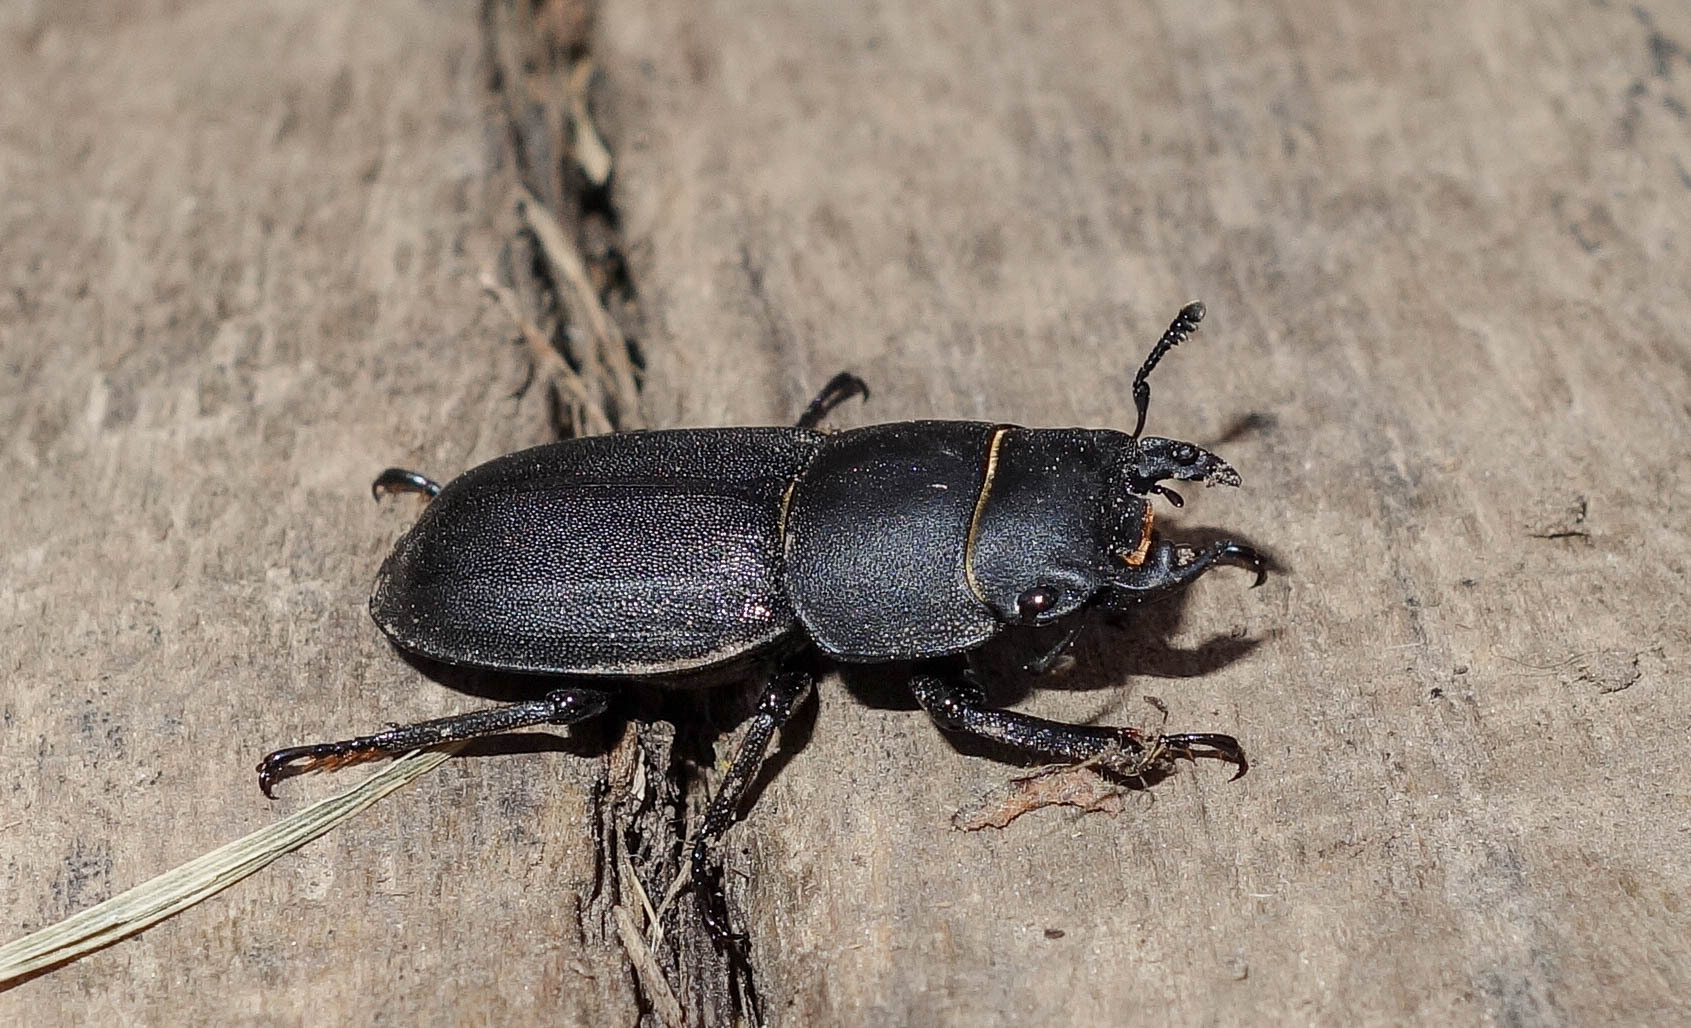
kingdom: Animalia
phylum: Arthropoda
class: Insecta
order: Coleoptera
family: Lucanidae
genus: Dorcus
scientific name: Dorcus parallelipipedus
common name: Lesser stag beetle
